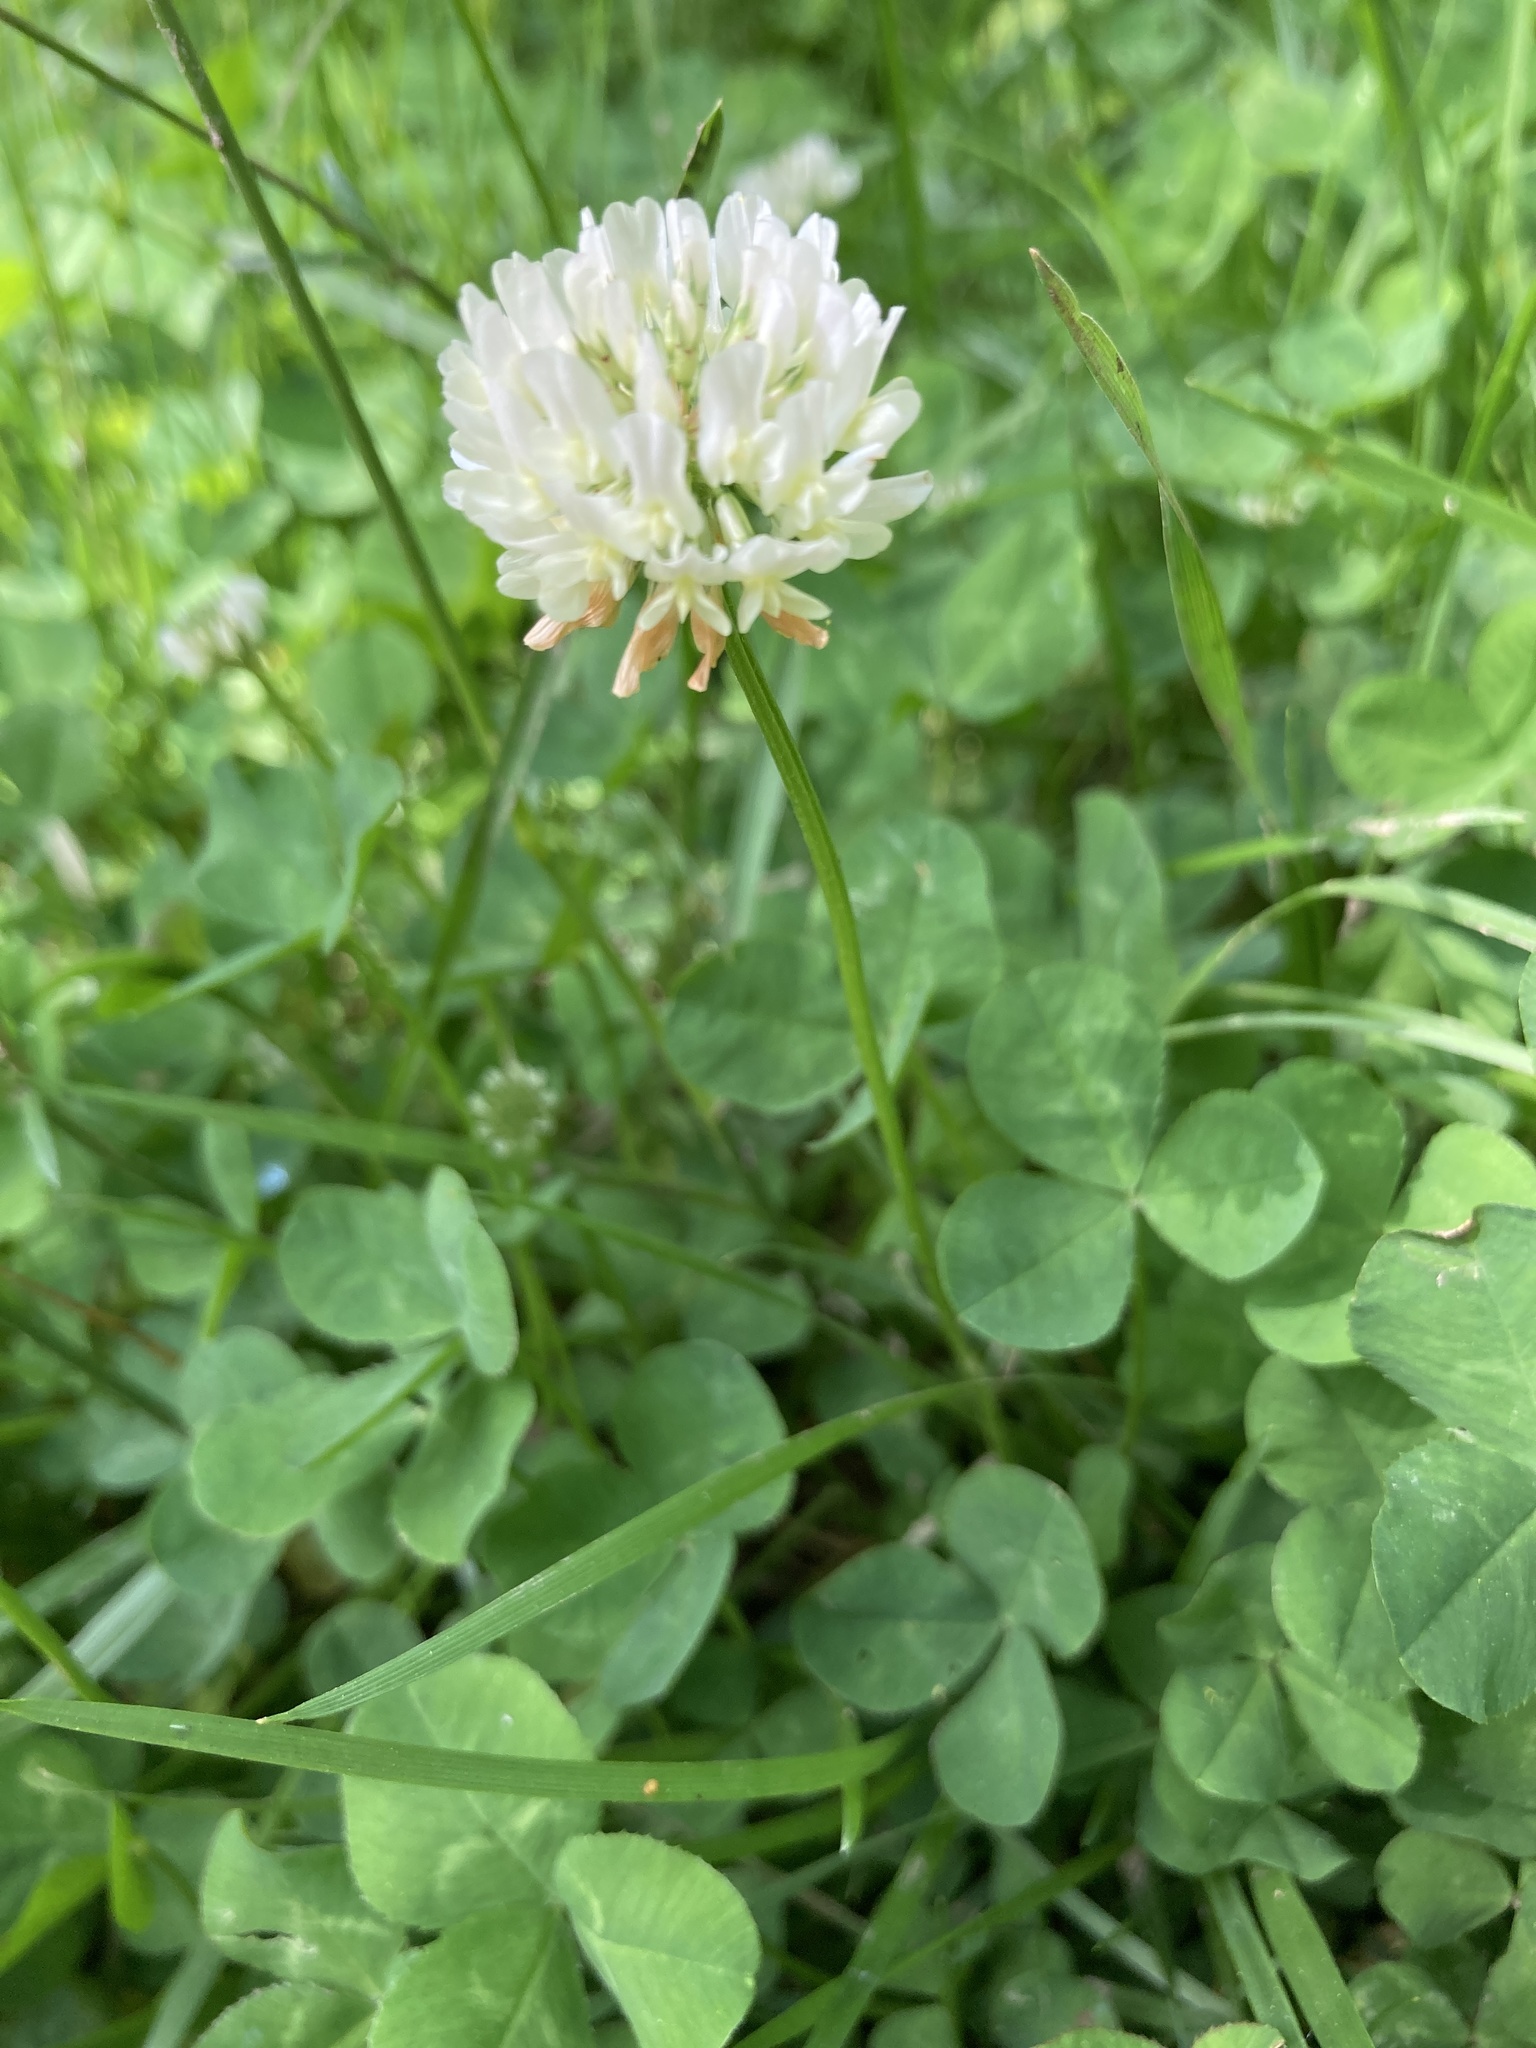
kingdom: Plantae
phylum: Tracheophyta
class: Magnoliopsida
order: Fabales
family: Fabaceae
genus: Trifolium
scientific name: Trifolium repens
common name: White clover
